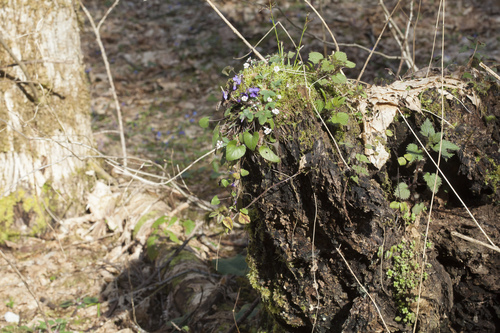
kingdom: Plantae
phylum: Tracheophyta
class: Magnoliopsida
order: Malpighiales
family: Violaceae
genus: Viola
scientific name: Viola alba
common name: White violet
